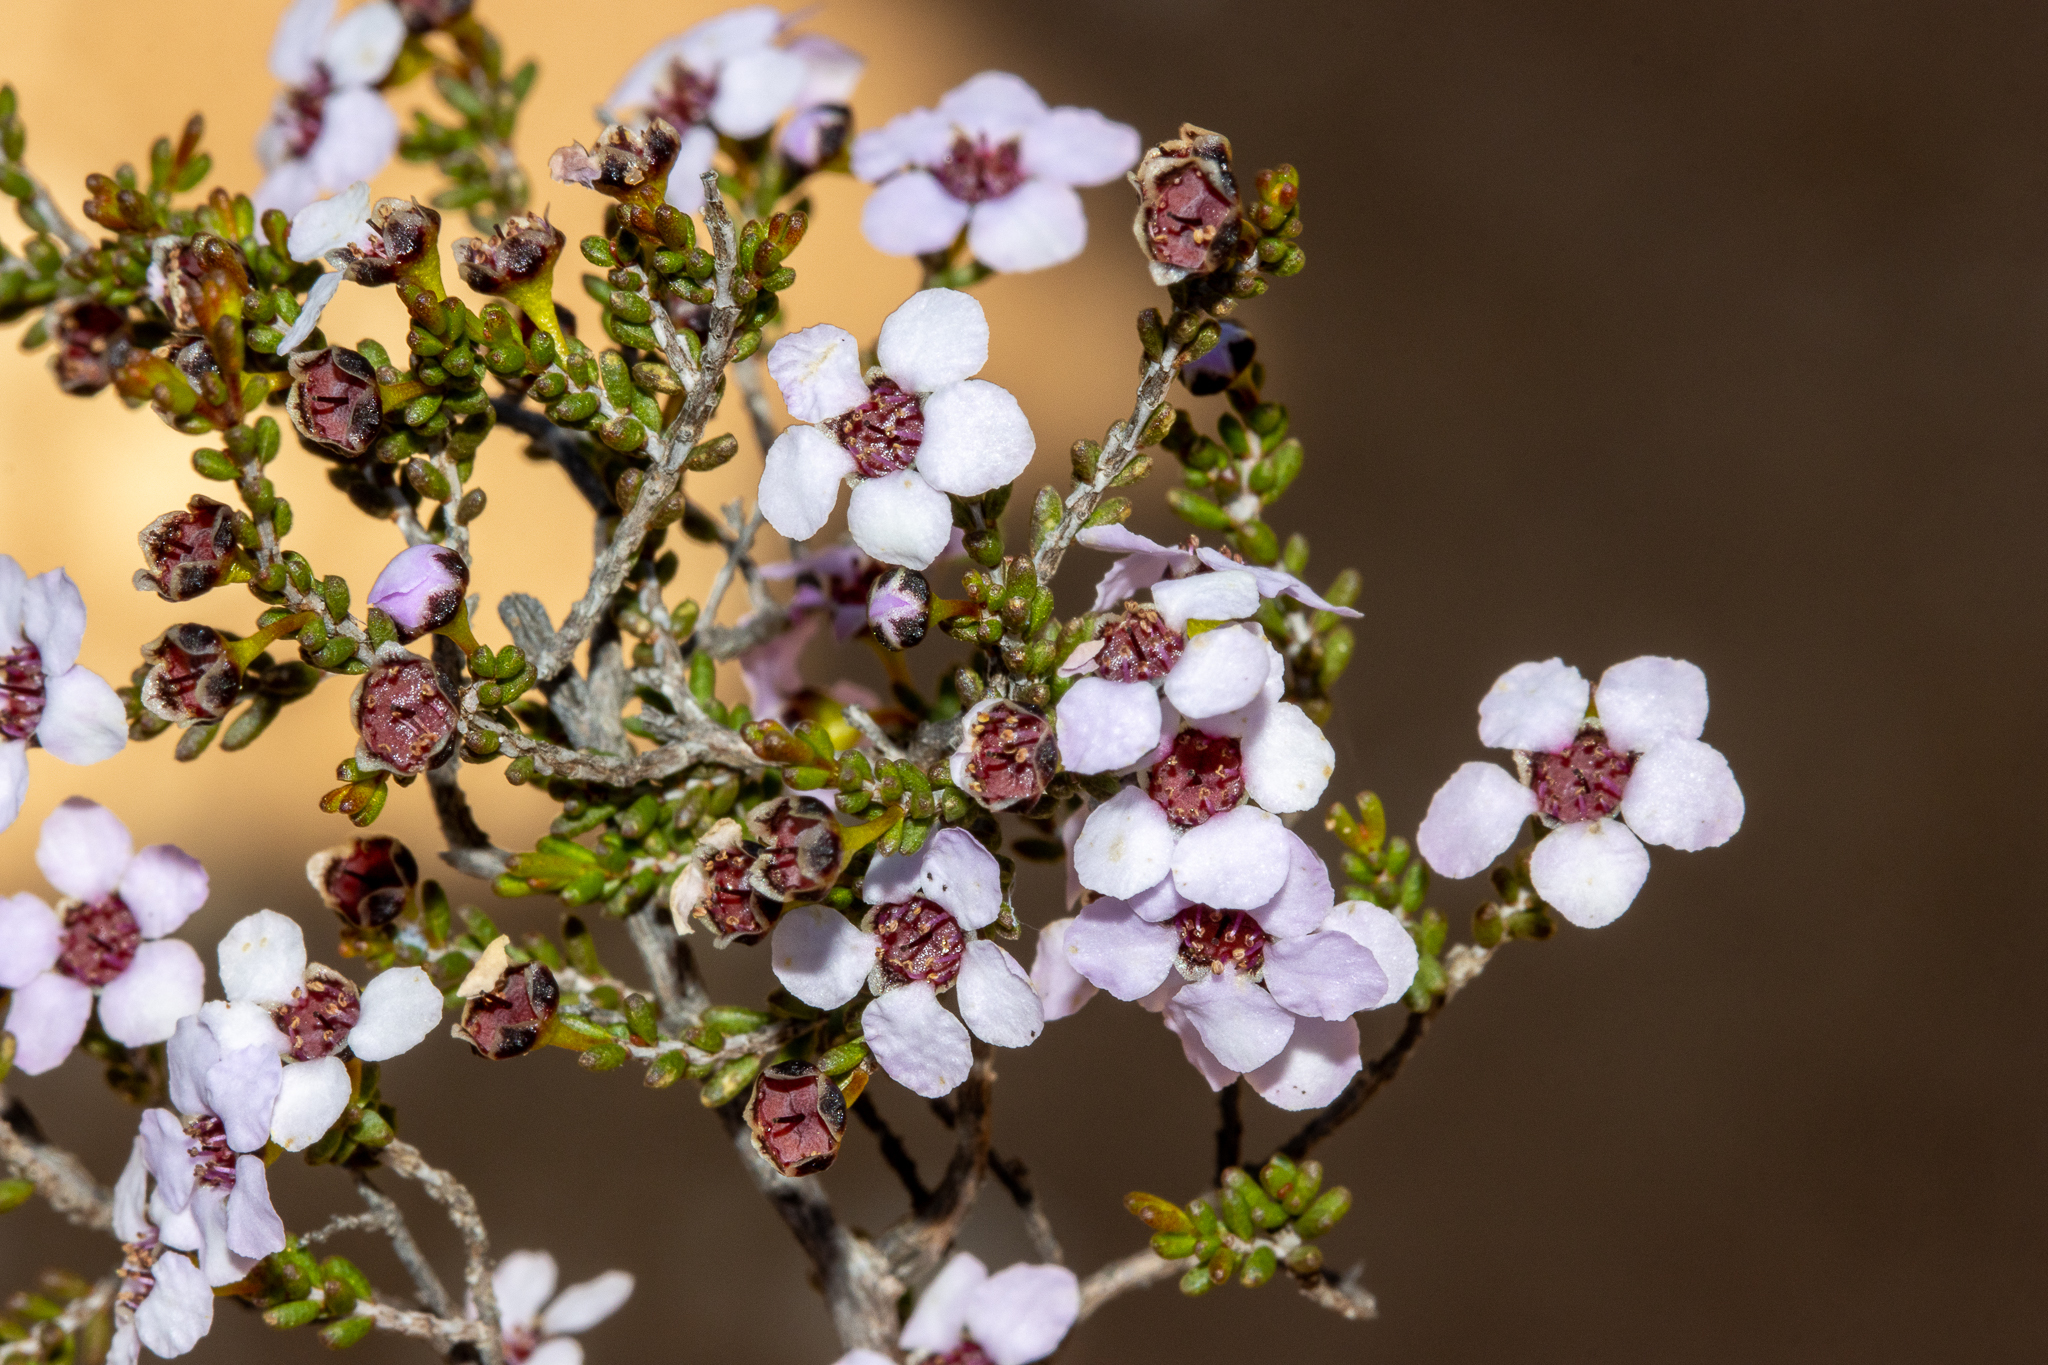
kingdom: Plantae
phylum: Tracheophyta
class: Magnoliopsida
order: Myrtales
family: Myrtaceae
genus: Rinzia
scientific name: Rinzia orientalis
